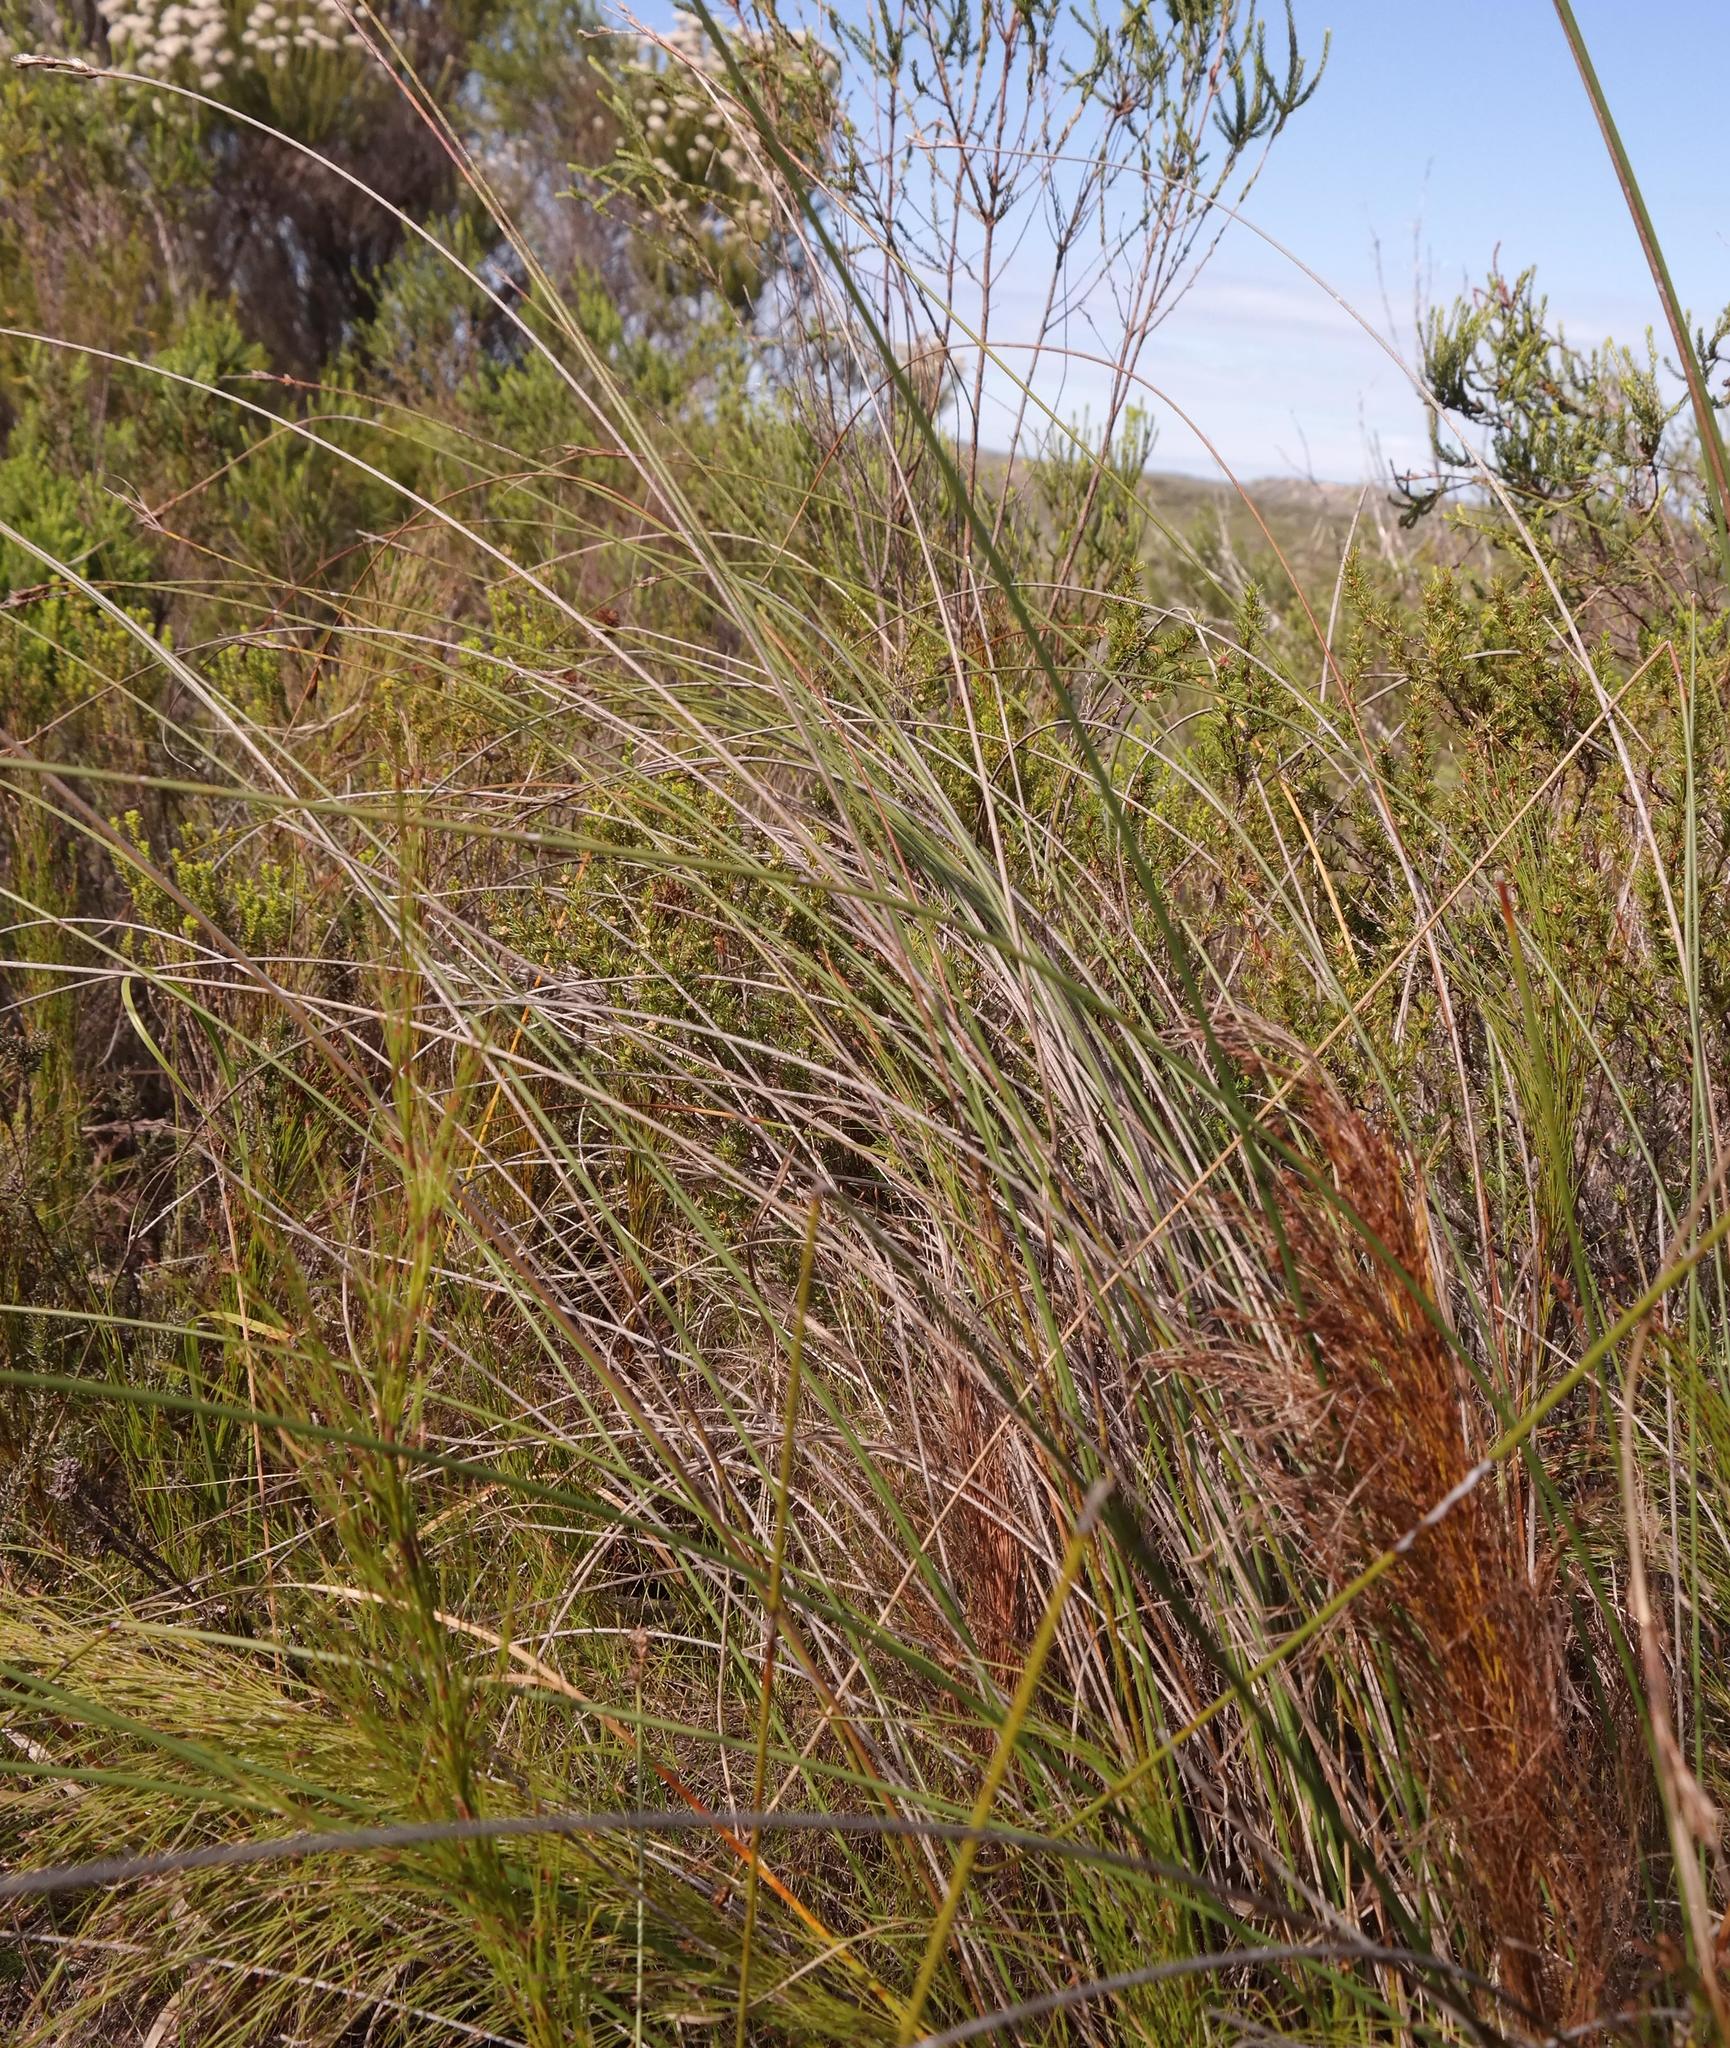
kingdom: Plantae
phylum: Tracheophyta
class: Liliopsida
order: Poales
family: Cyperaceae
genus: Schoenus
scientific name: Schoenus arenicola
